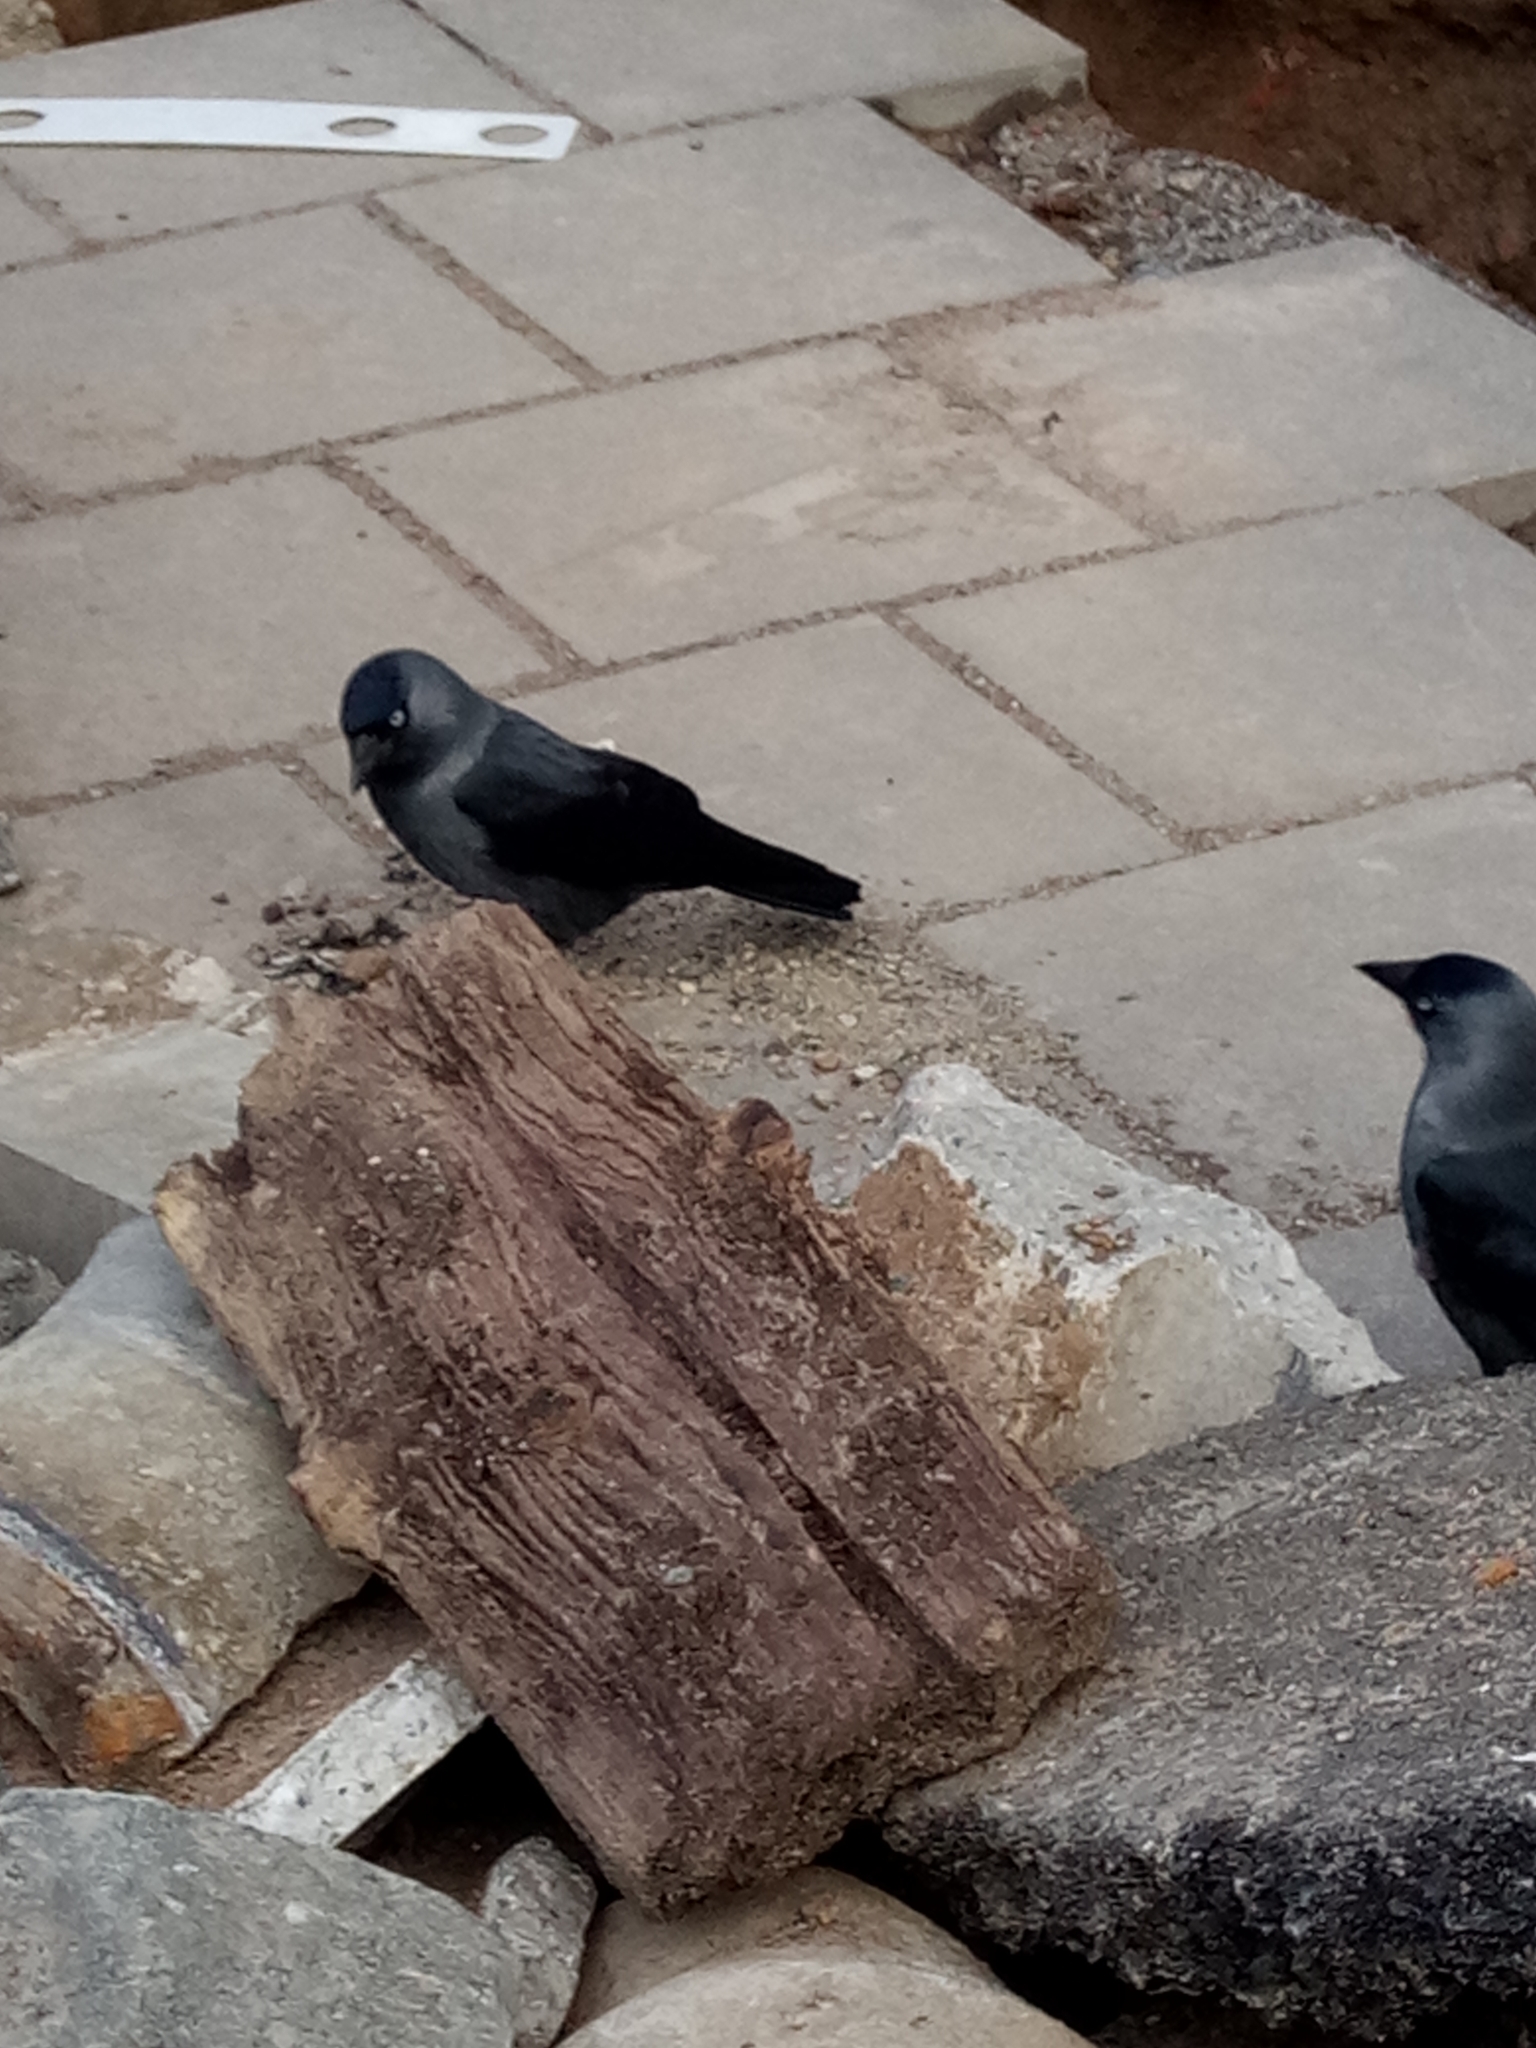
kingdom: Animalia
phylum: Chordata
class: Aves
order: Passeriformes
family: Corvidae
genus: Coloeus
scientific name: Coloeus monedula
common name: Western jackdaw
